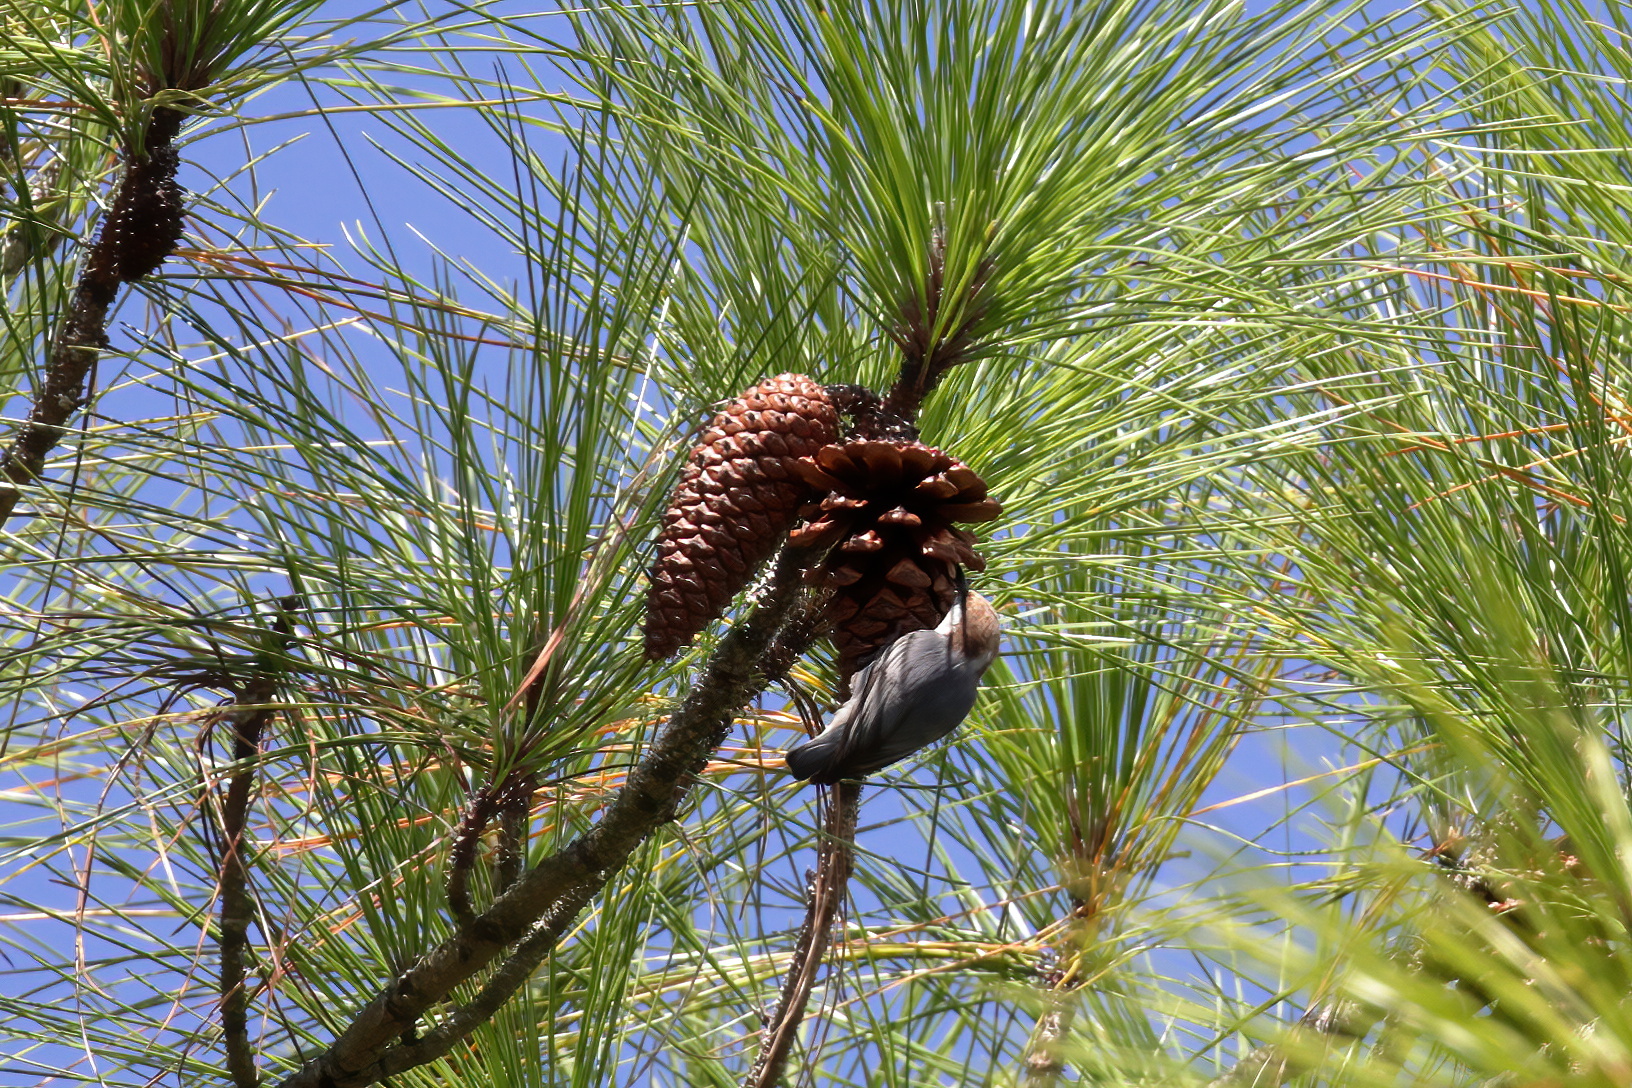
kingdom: Animalia
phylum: Chordata
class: Aves
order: Passeriformes
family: Sittidae
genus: Sitta
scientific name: Sitta pusilla
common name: Brown-headed nuthatch
